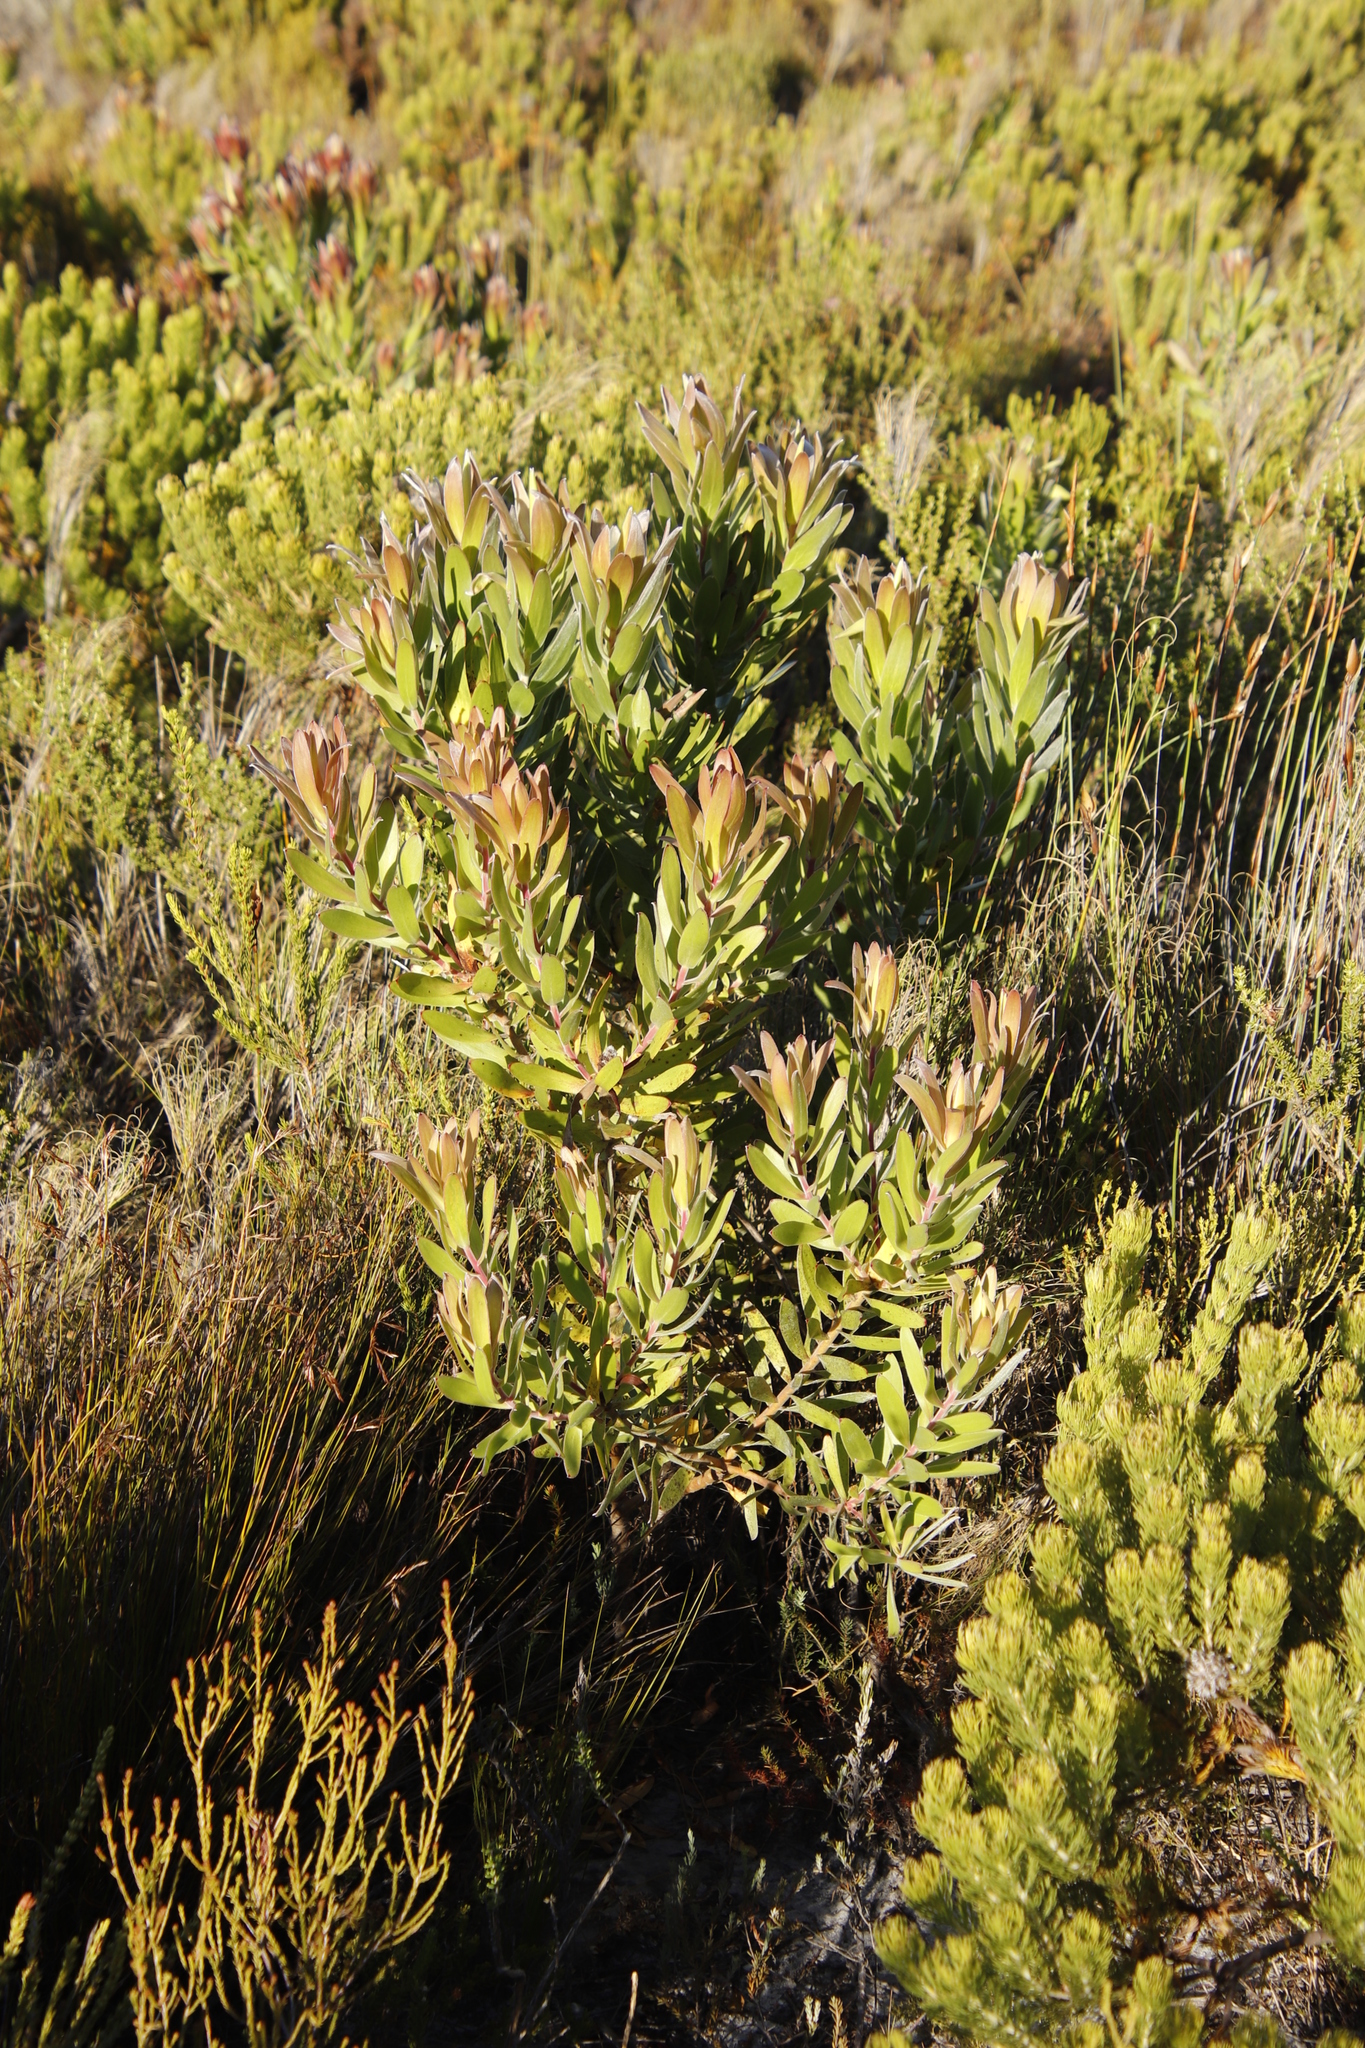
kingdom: Plantae
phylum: Tracheophyta
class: Magnoliopsida
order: Proteales
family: Proteaceae
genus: Leucadendron
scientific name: Leucadendron laureolum
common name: Golden sunshinebush
